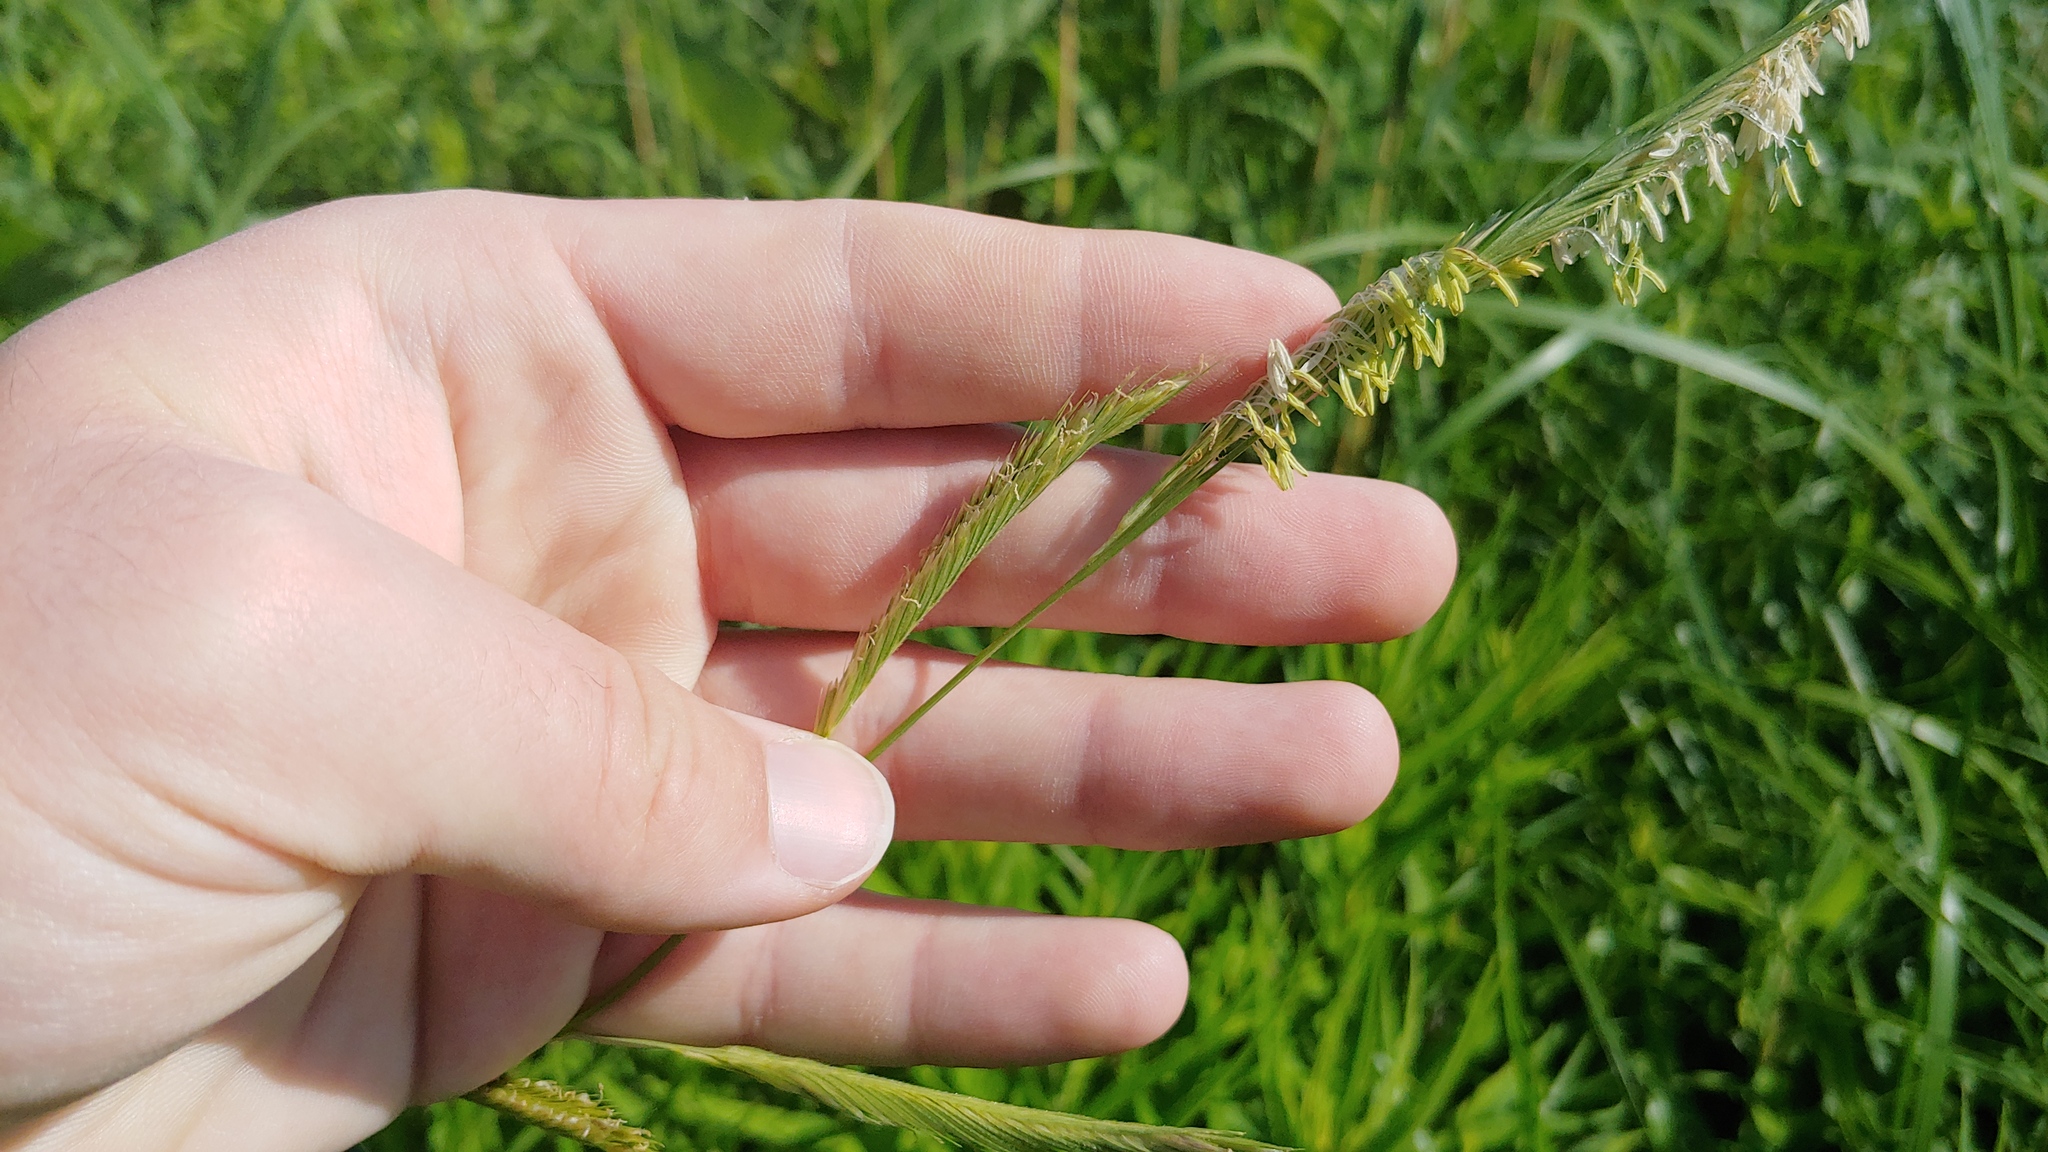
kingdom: Plantae
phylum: Tracheophyta
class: Liliopsida
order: Poales
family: Poaceae
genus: Sporobolus
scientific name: Sporobolus michauxianus
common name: Freshwater cordgrass
